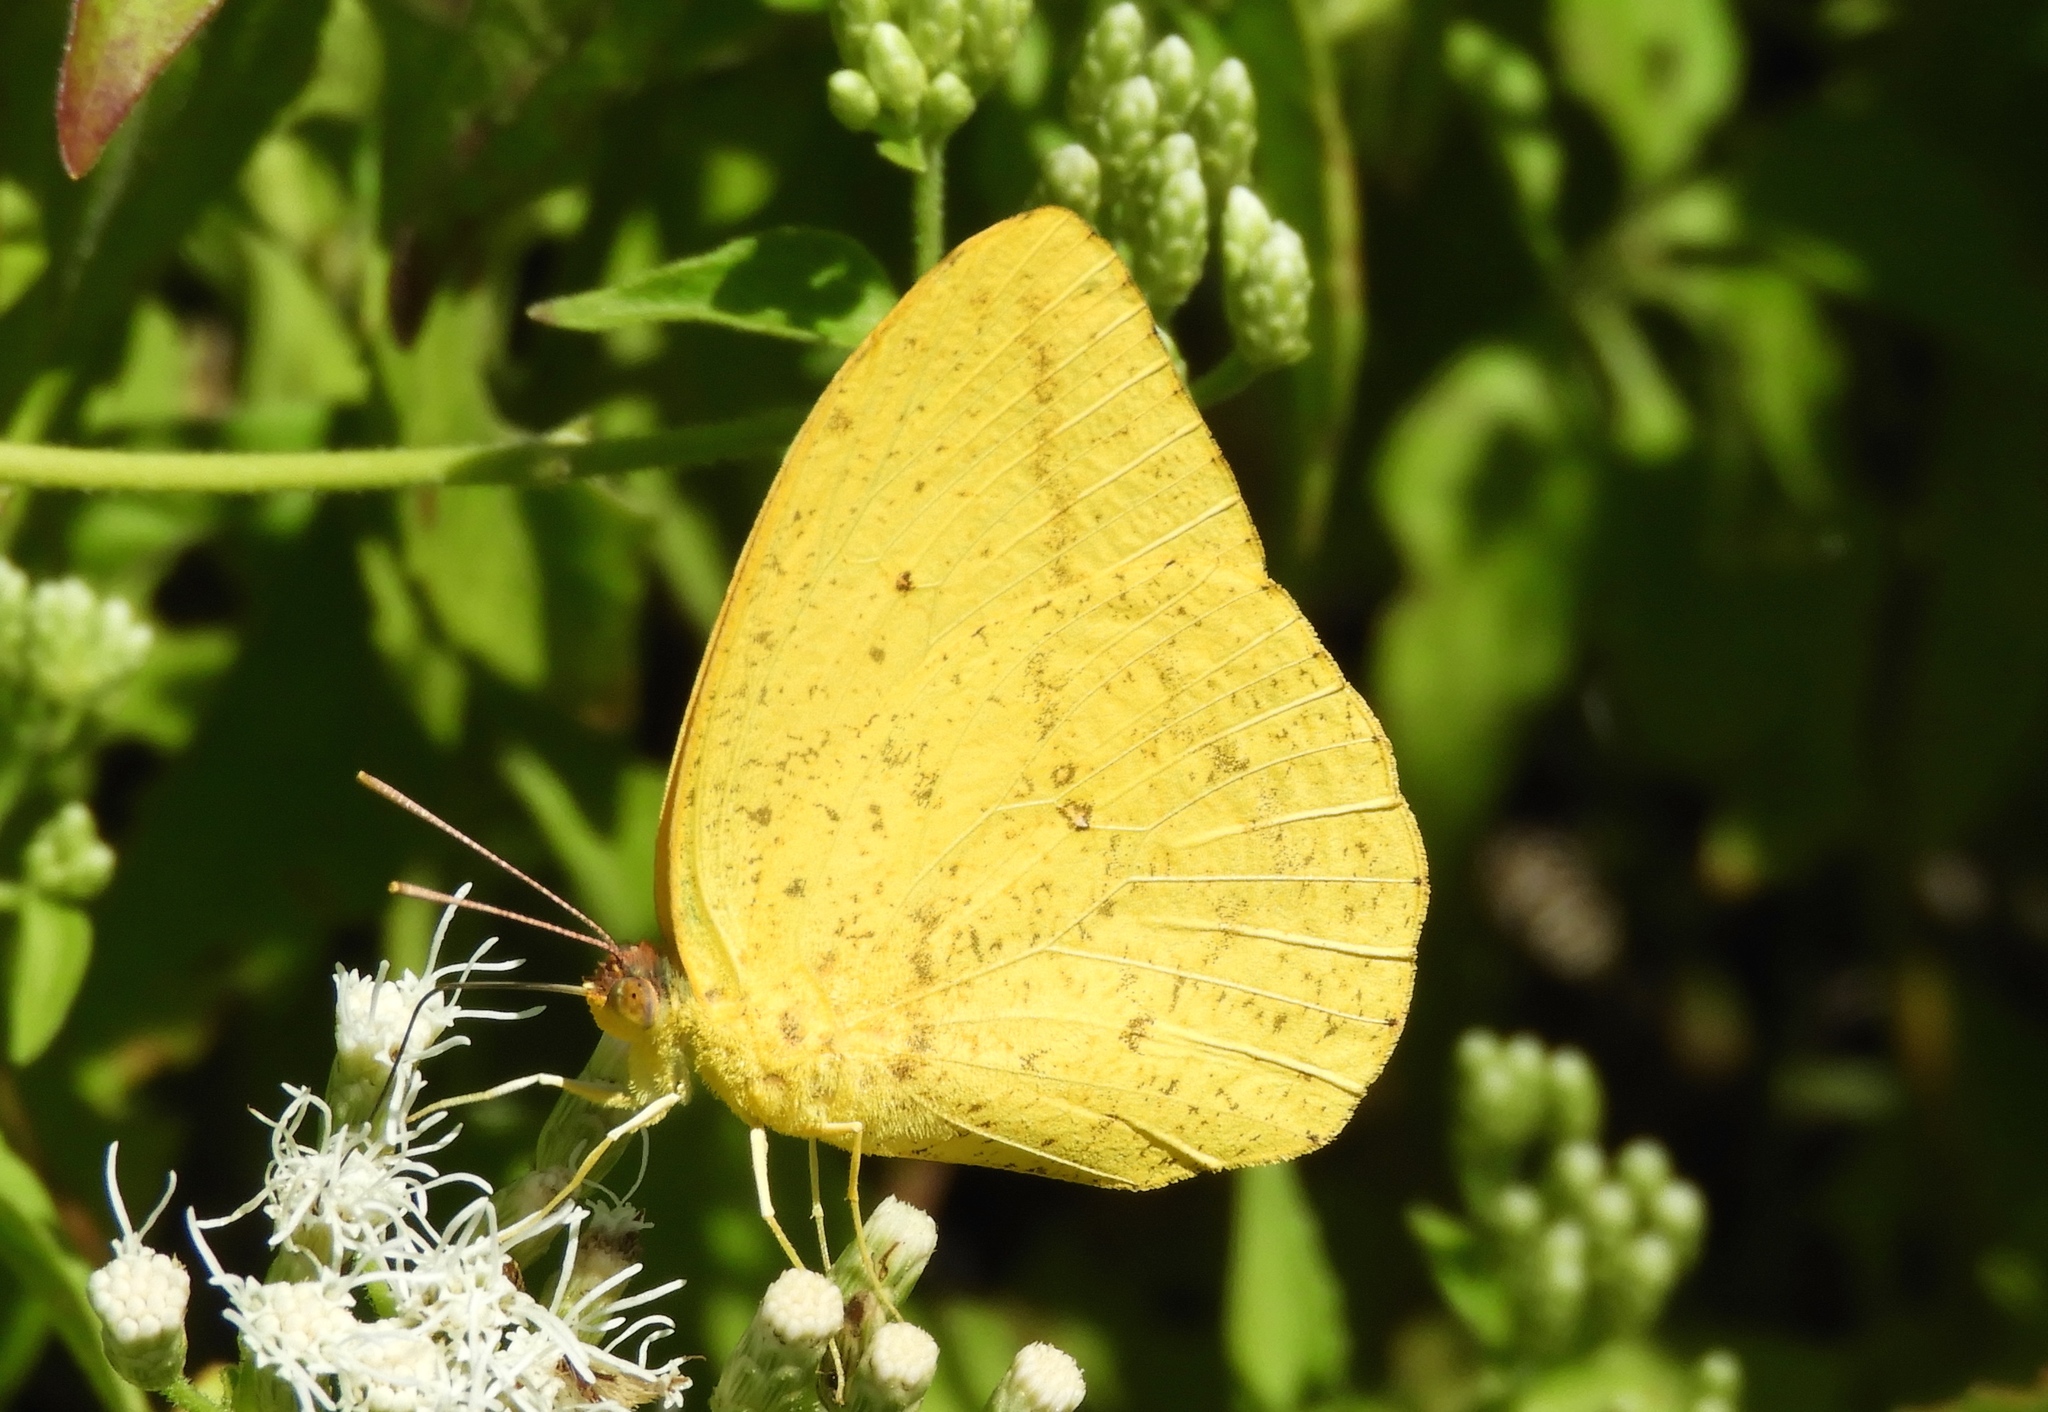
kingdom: Animalia
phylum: Arthropoda
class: Insecta
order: Lepidoptera
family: Pieridae
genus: Phoebis
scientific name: Phoebis agarithe
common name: Large orange sulphur
